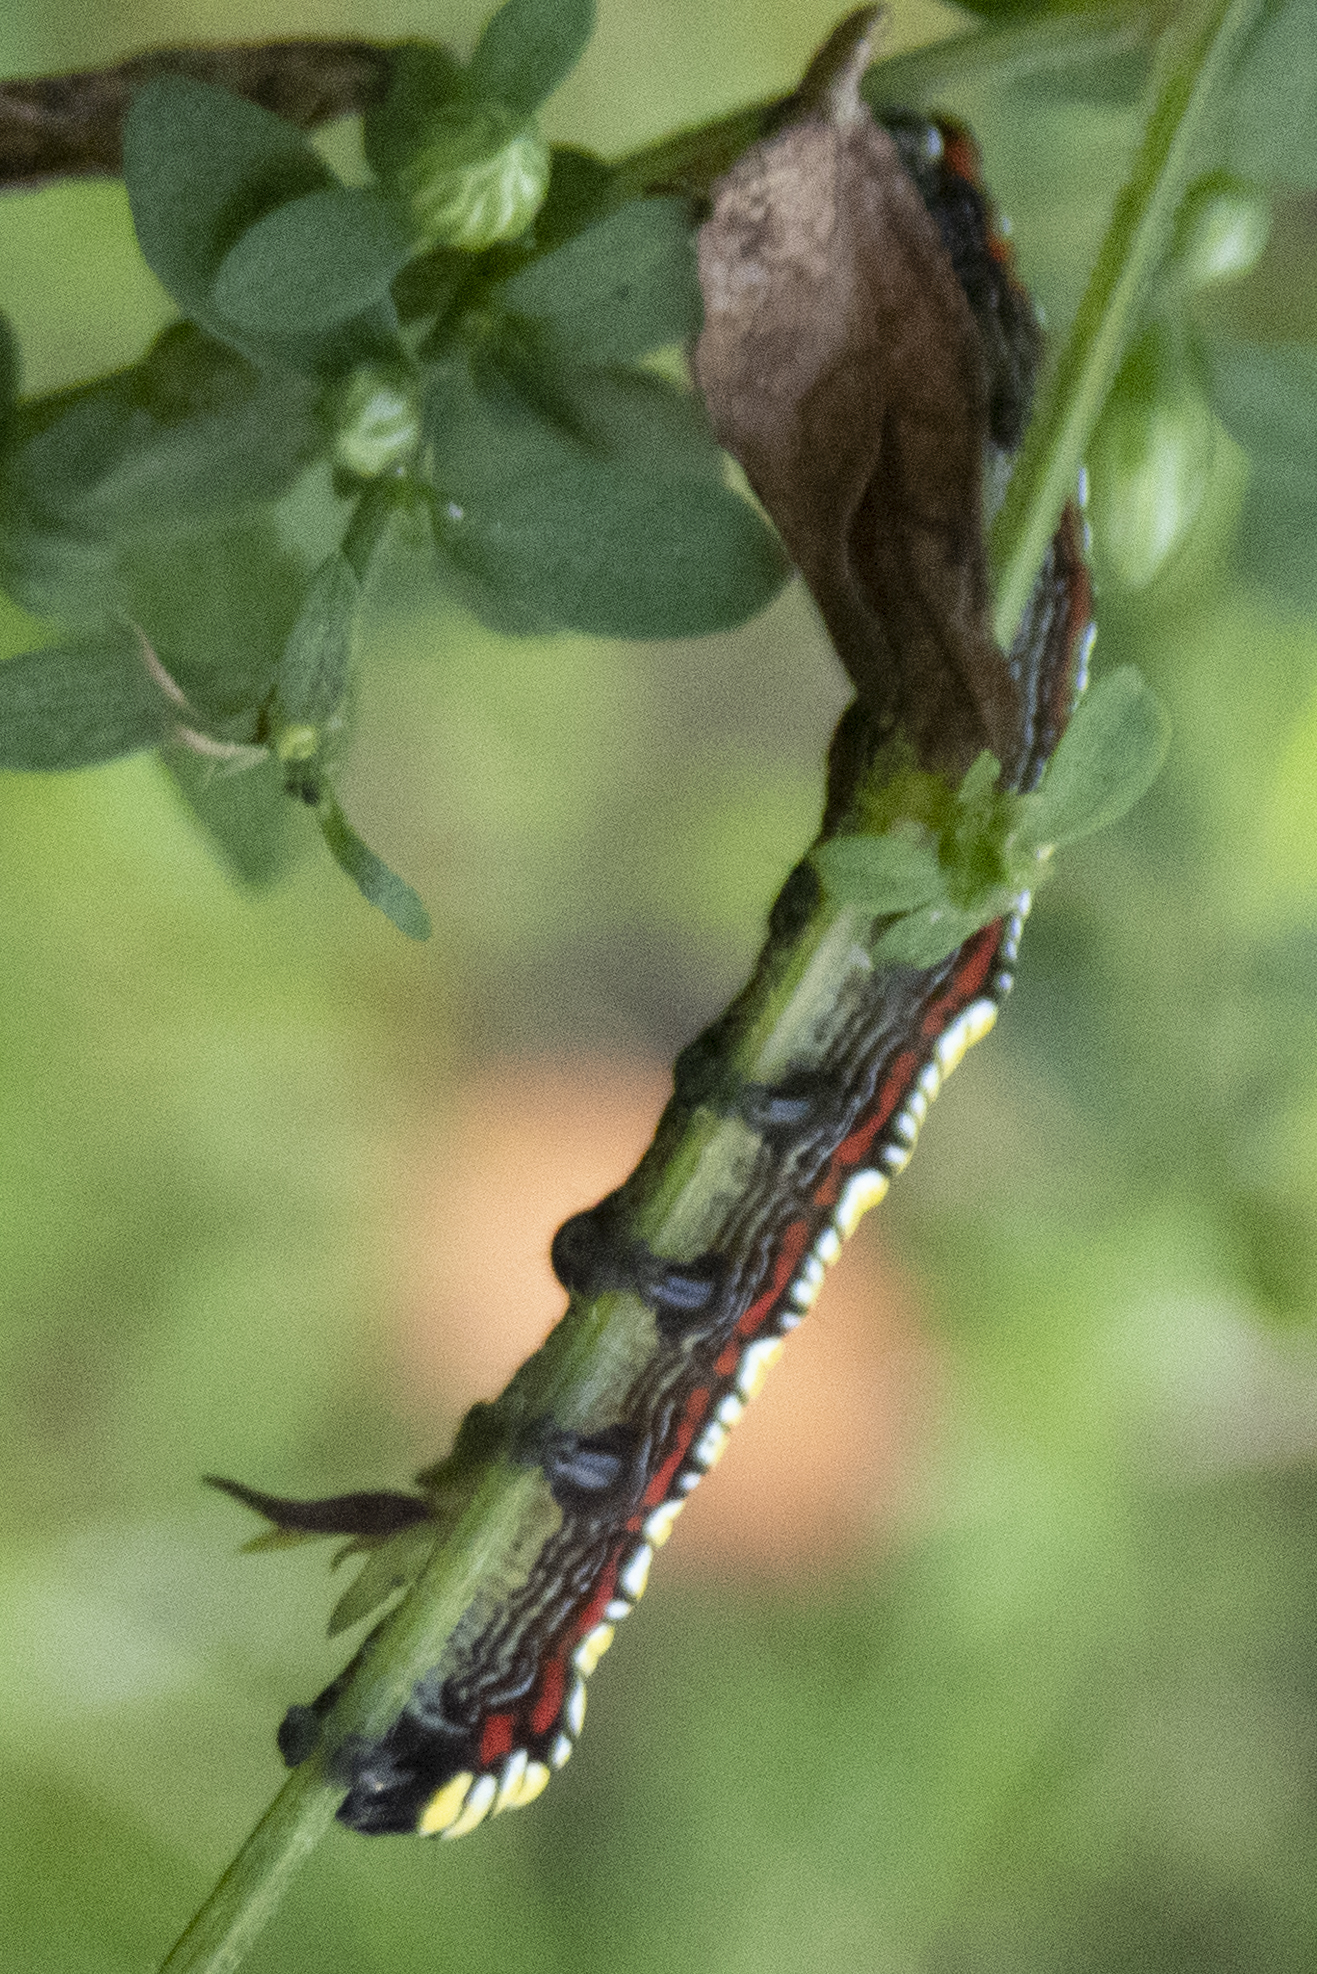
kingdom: Animalia
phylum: Arthropoda
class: Insecta
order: Lepidoptera
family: Noctuidae
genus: Cucullia
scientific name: Cucullia convexipennis
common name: Brown-hooded owlet
